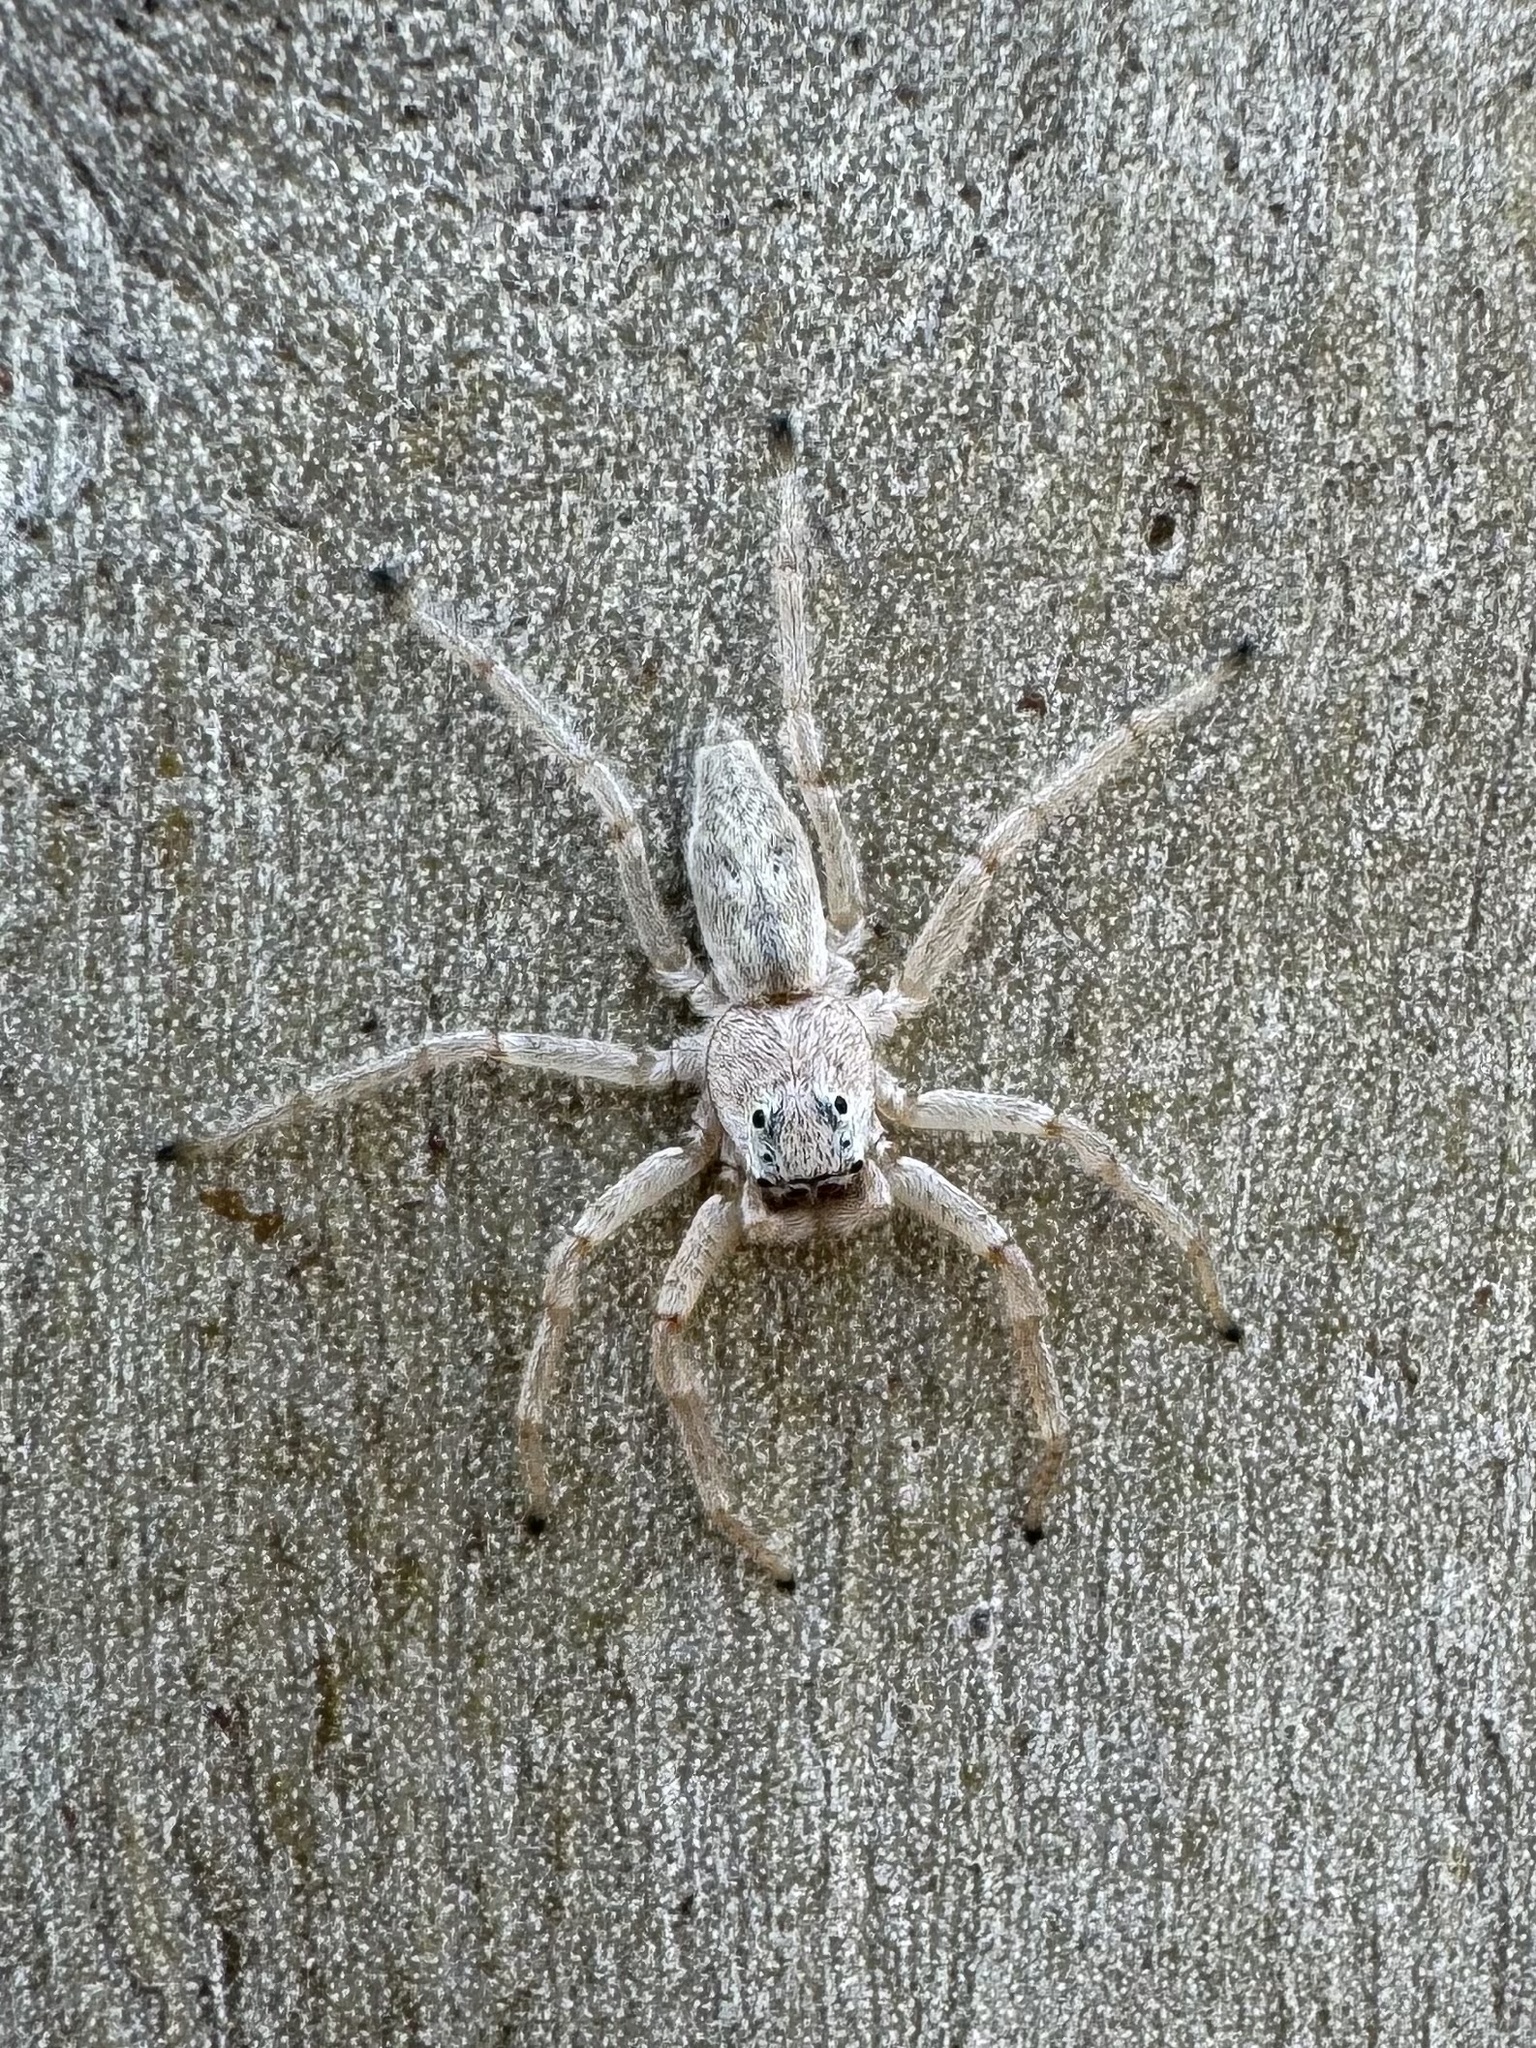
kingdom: Animalia
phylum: Arthropoda
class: Arachnida
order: Araneae
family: Salticidae
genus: Arasia
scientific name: Arasia mollicoma
